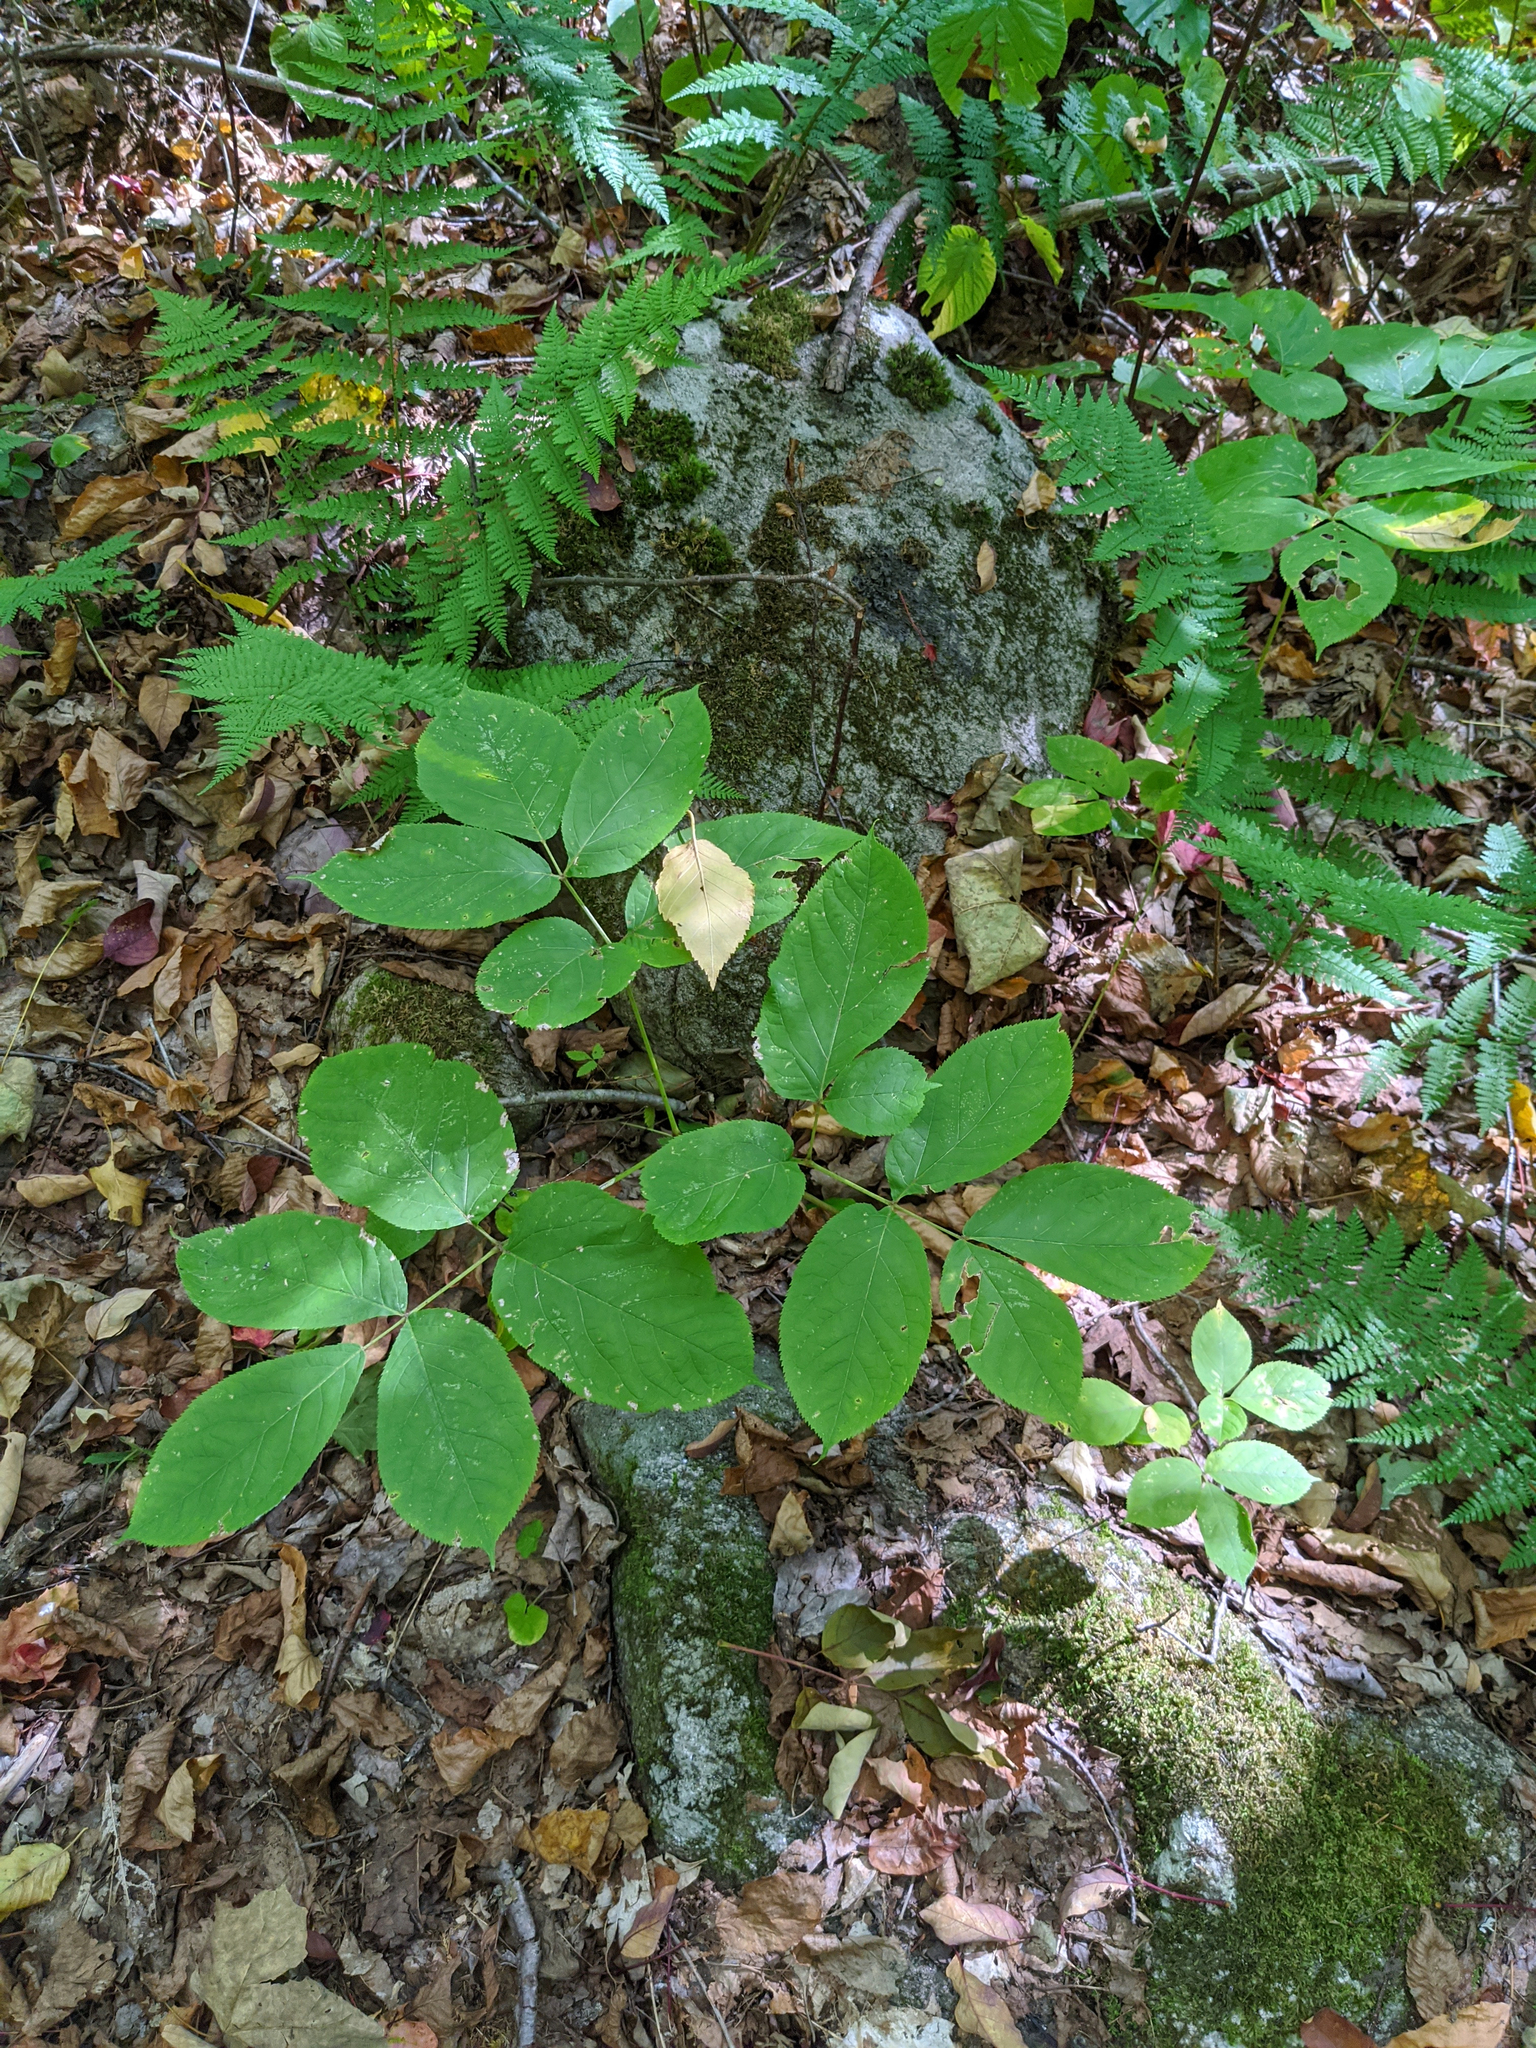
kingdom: Plantae
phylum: Tracheophyta
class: Magnoliopsida
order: Apiales
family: Araliaceae
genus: Aralia
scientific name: Aralia nudicaulis
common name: Wild sarsaparilla
